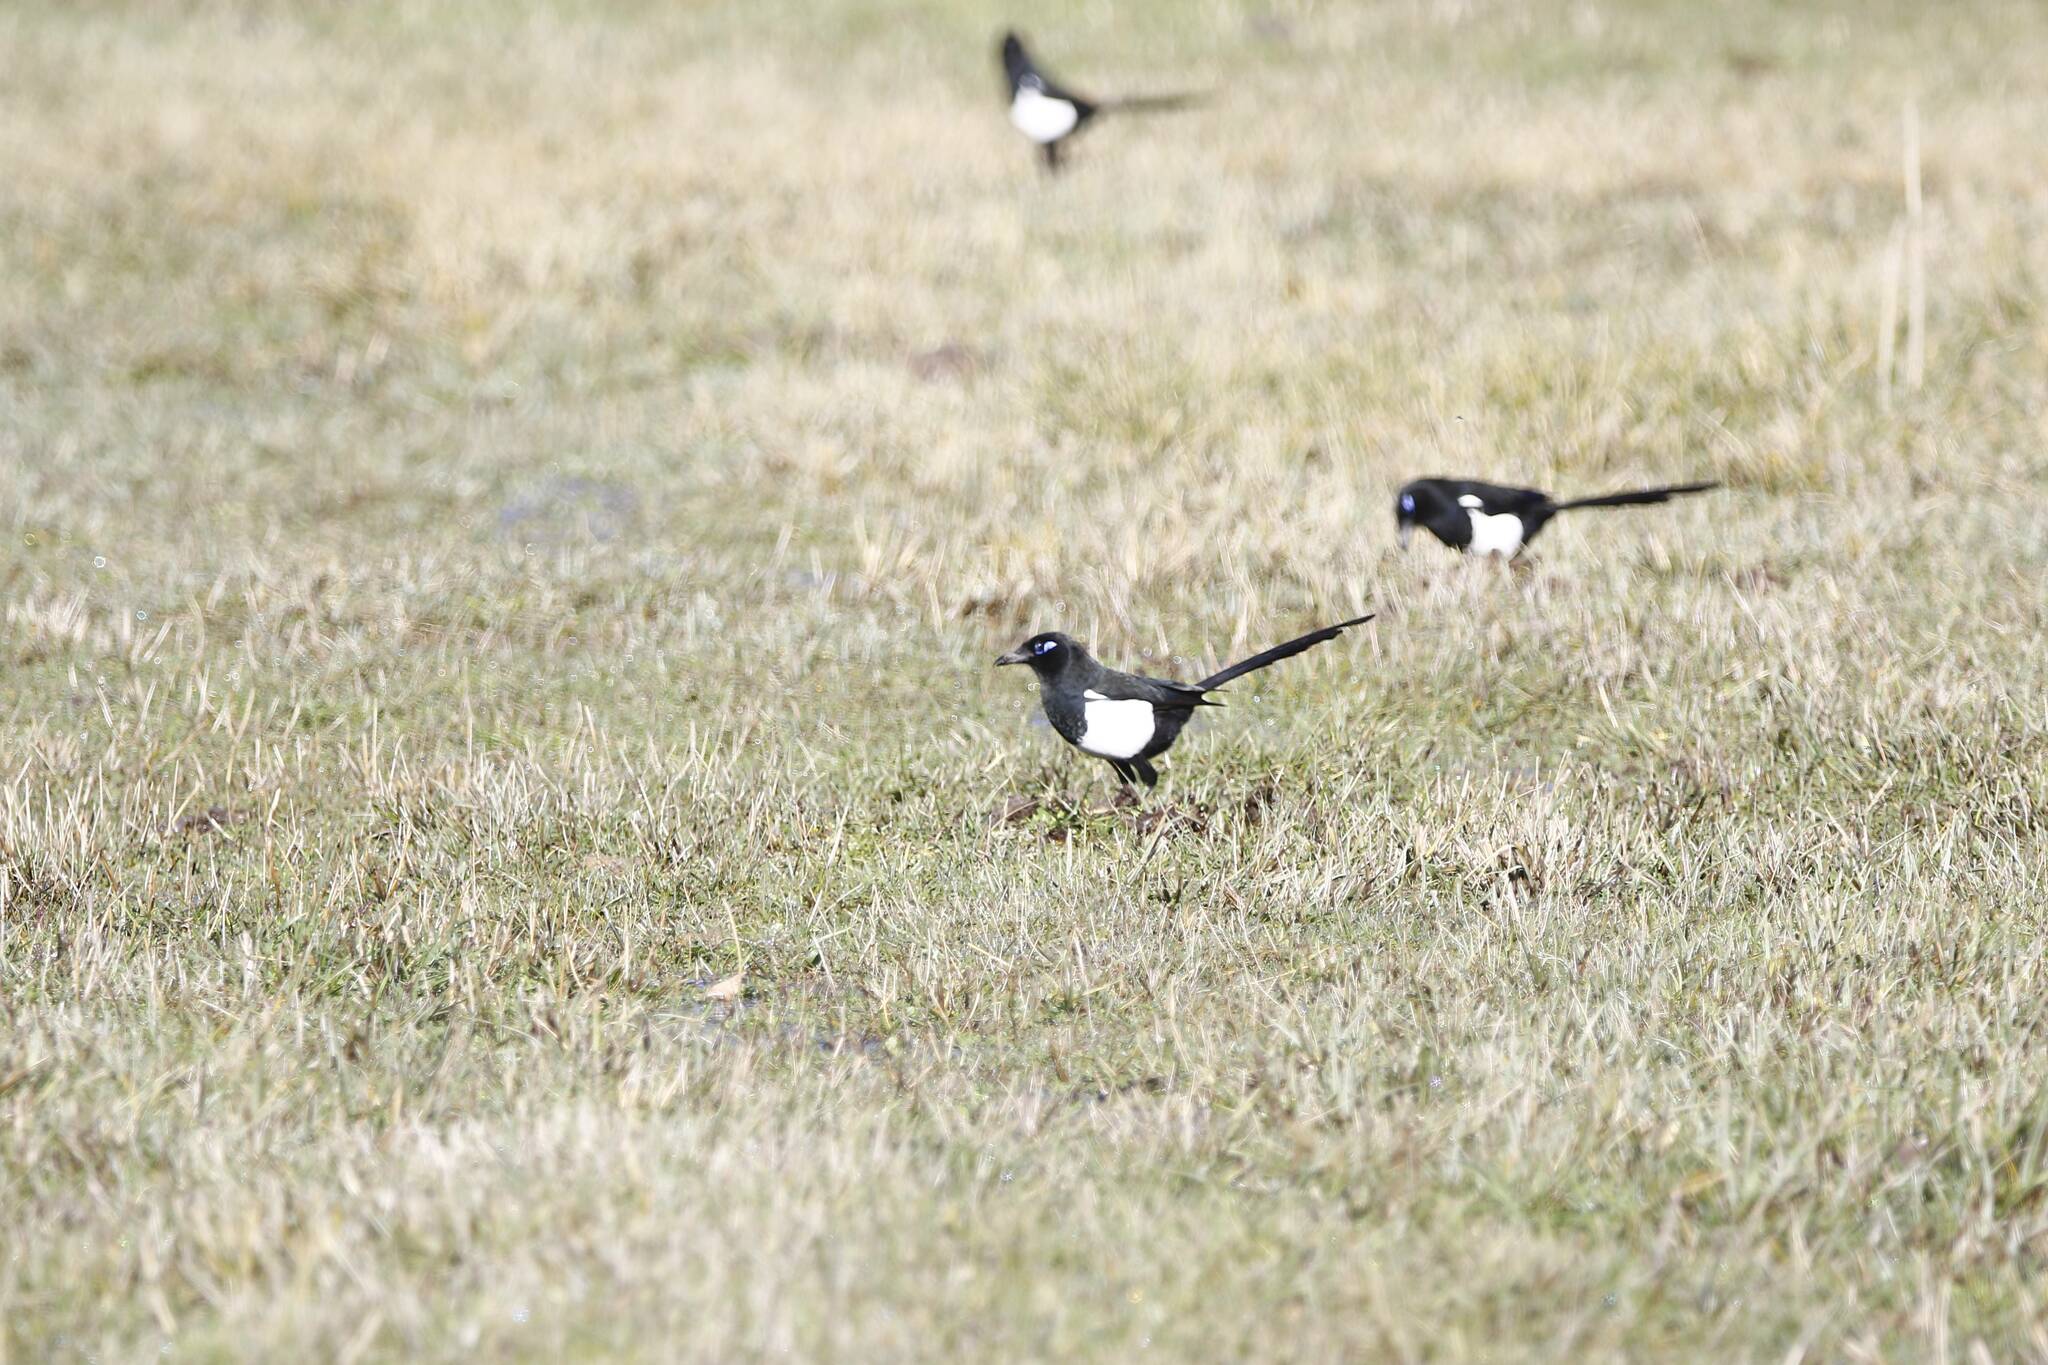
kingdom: Animalia
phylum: Chordata
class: Aves
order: Passeriformes
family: Corvidae
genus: Pica
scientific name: Pica mauritanica
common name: Maghreb magpie
